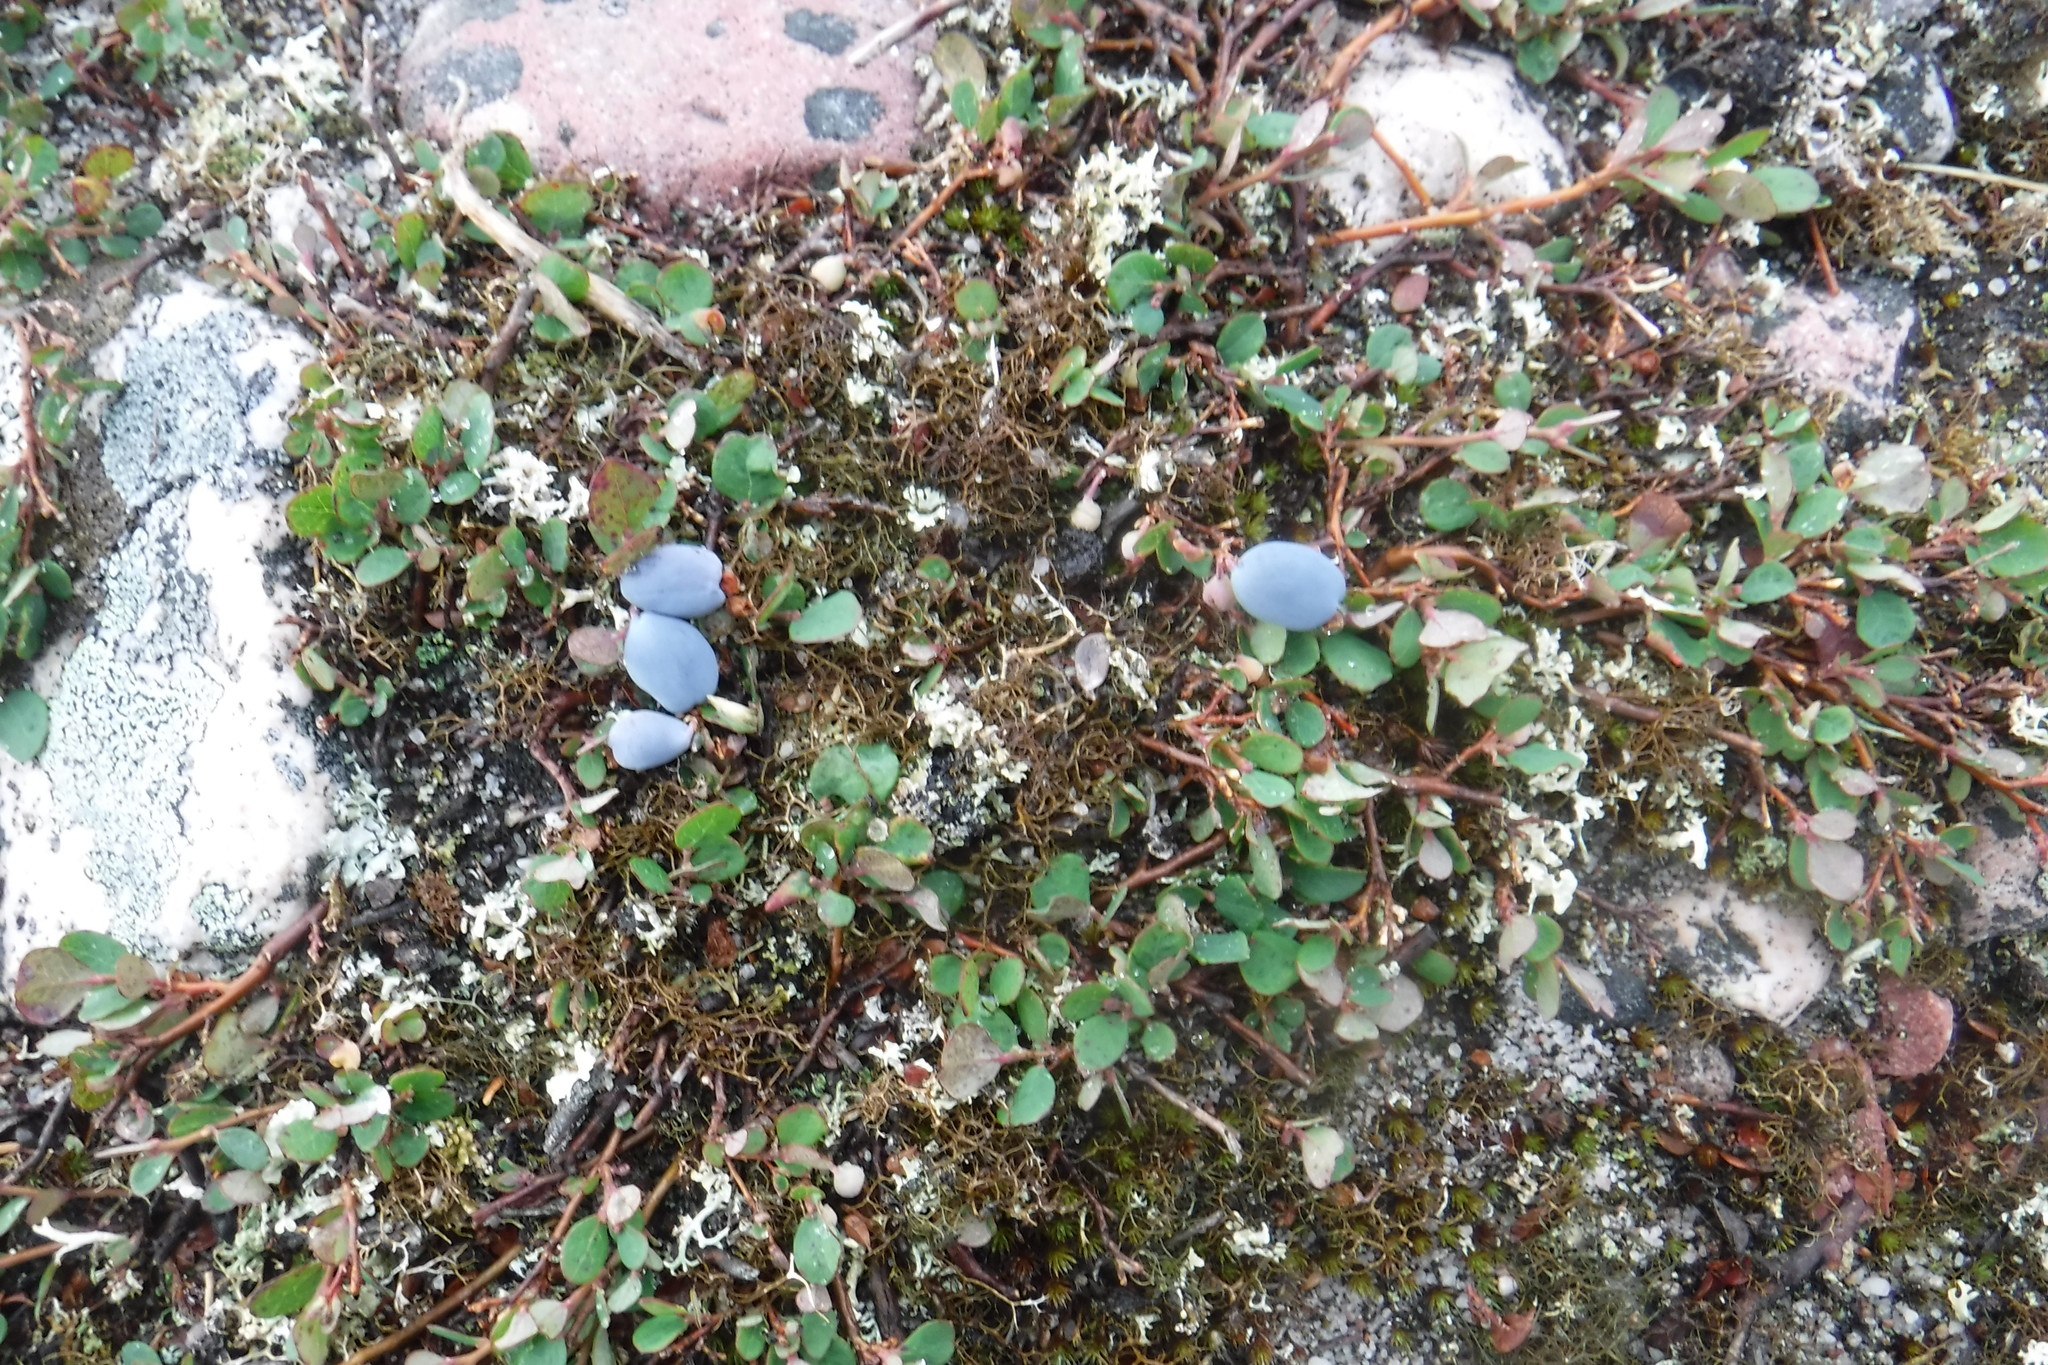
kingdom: Plantae
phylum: Tracheophyta
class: Magnoliopsida
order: Ericales
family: Ericaceae
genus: Vaccinium
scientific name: Vaccinium uliginosum
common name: Bog bilberry
